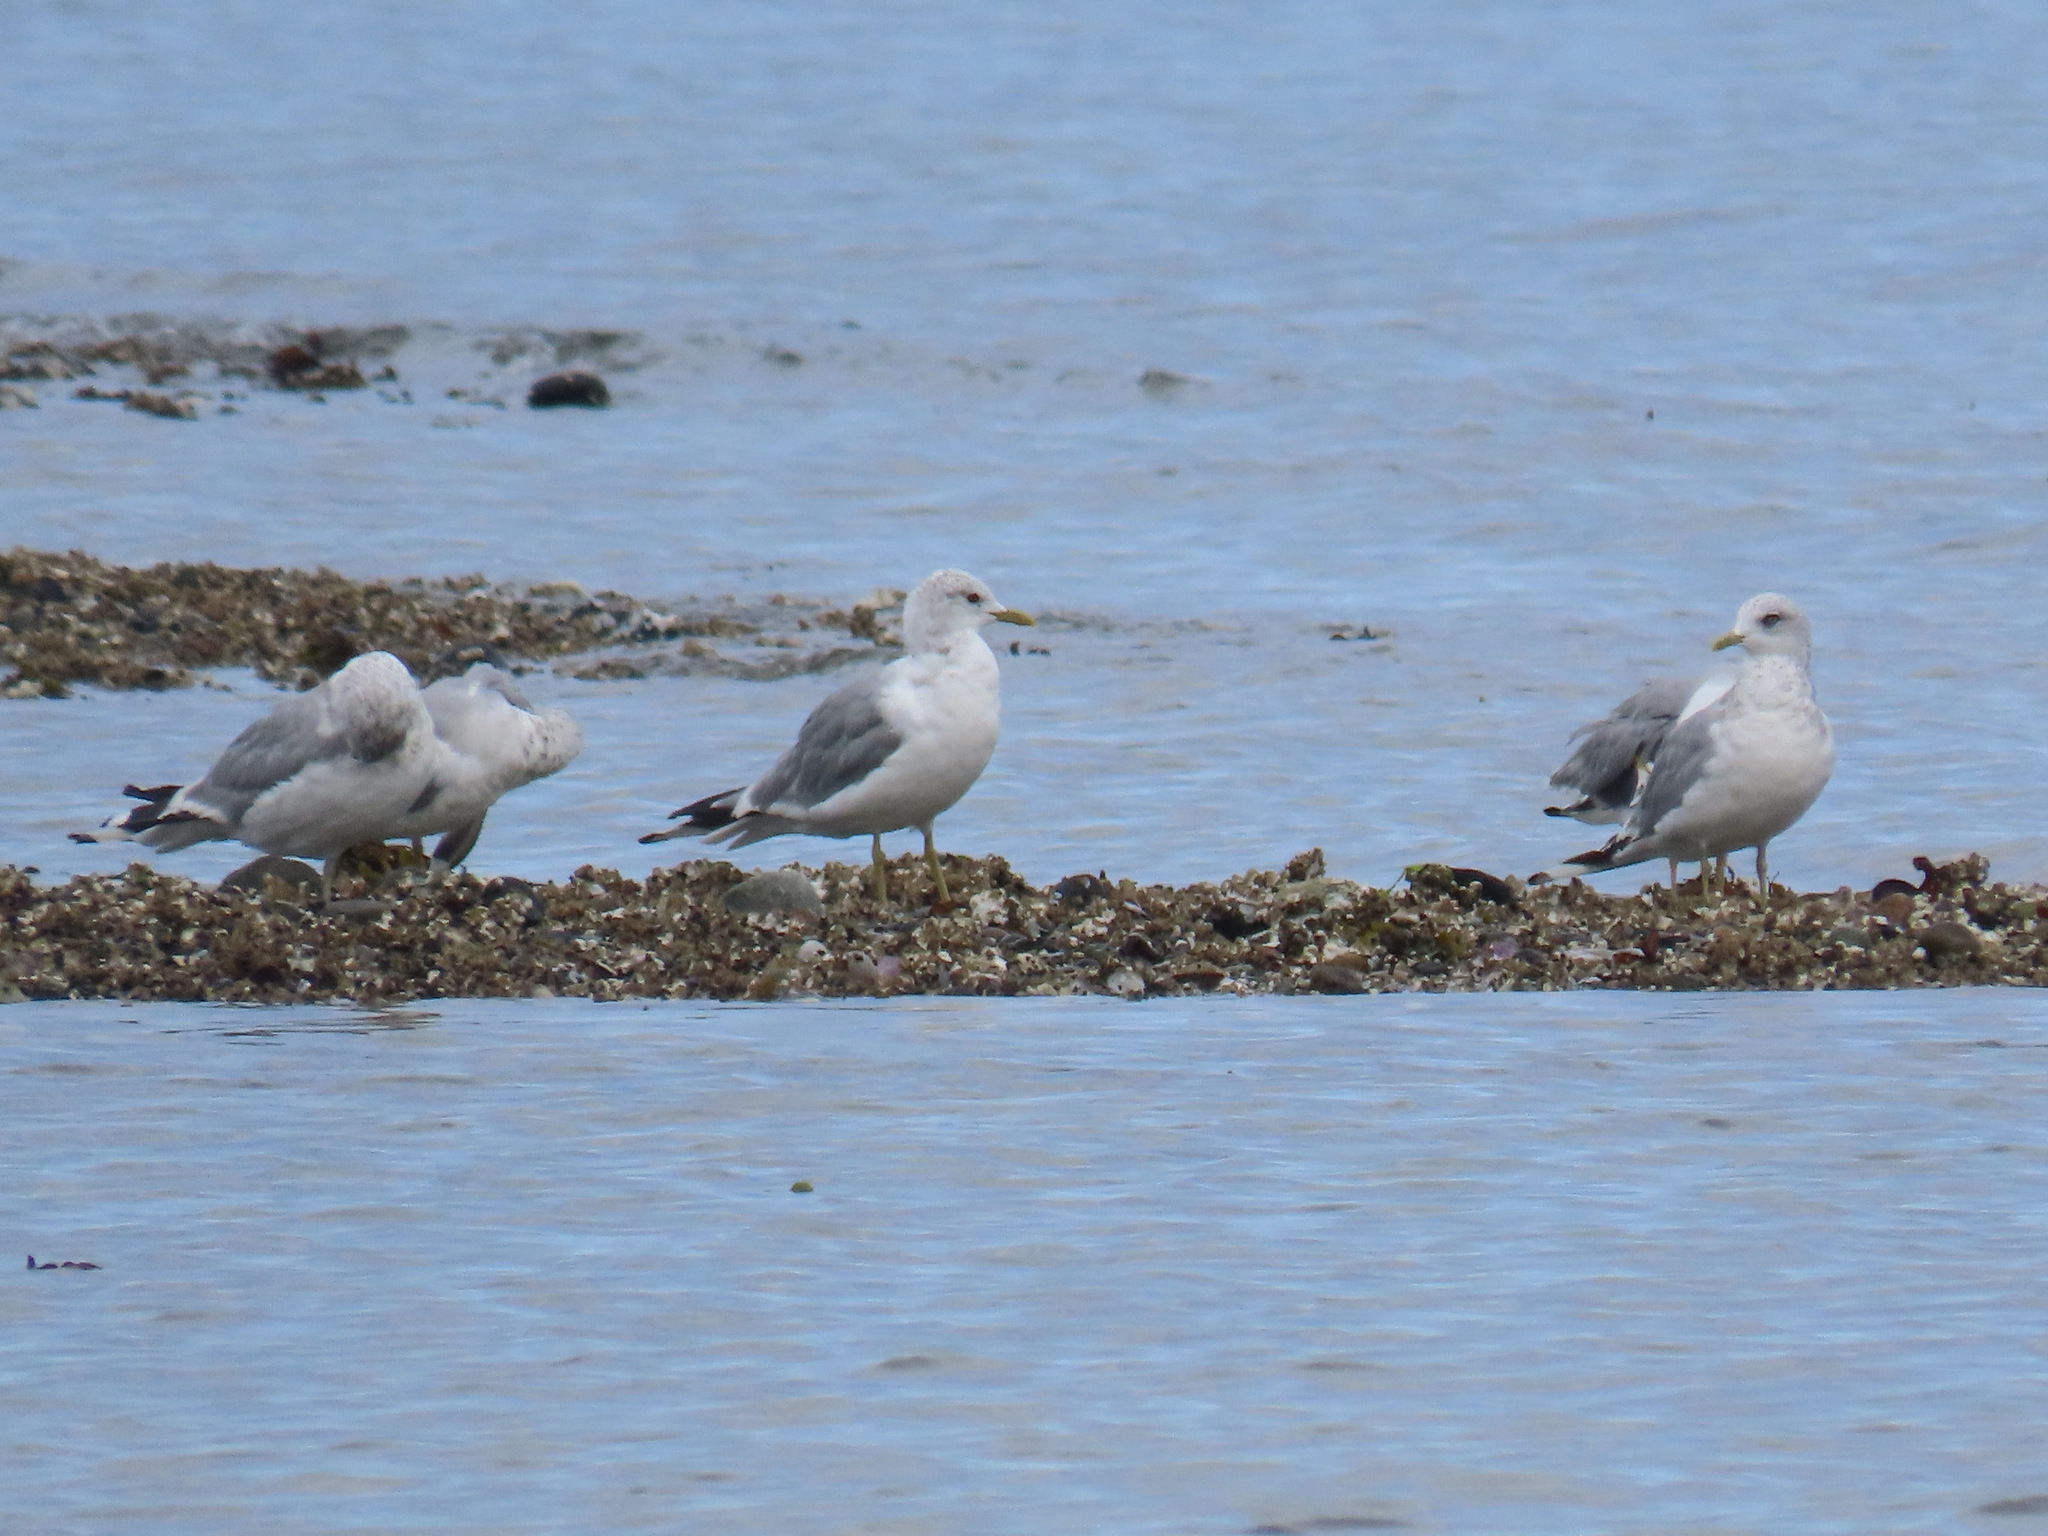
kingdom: Animalia
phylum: Chordata
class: Aves
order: Charadriiformes
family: Laridae
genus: Larus
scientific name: Larus brachyrhynchus
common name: Short-billed gull
